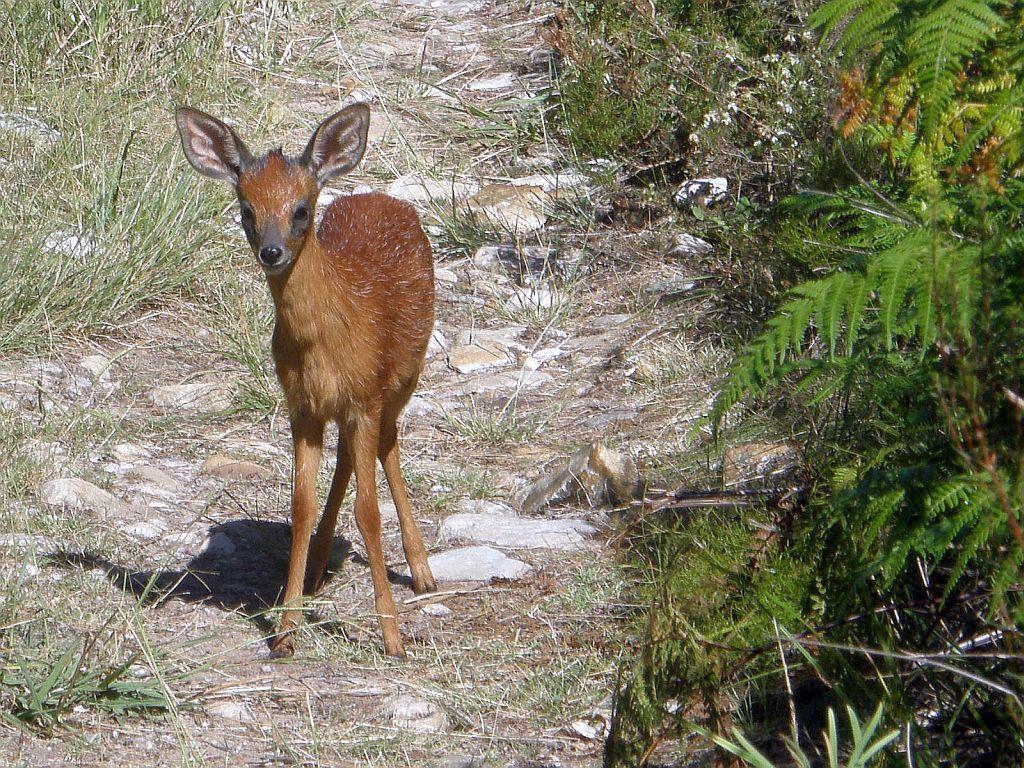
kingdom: Animalia
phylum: Chordata
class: Mammalia
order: Artiodactyla
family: Bovidae
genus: Raphicerus
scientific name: Raphicerus melanotis
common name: Cape grysbok
